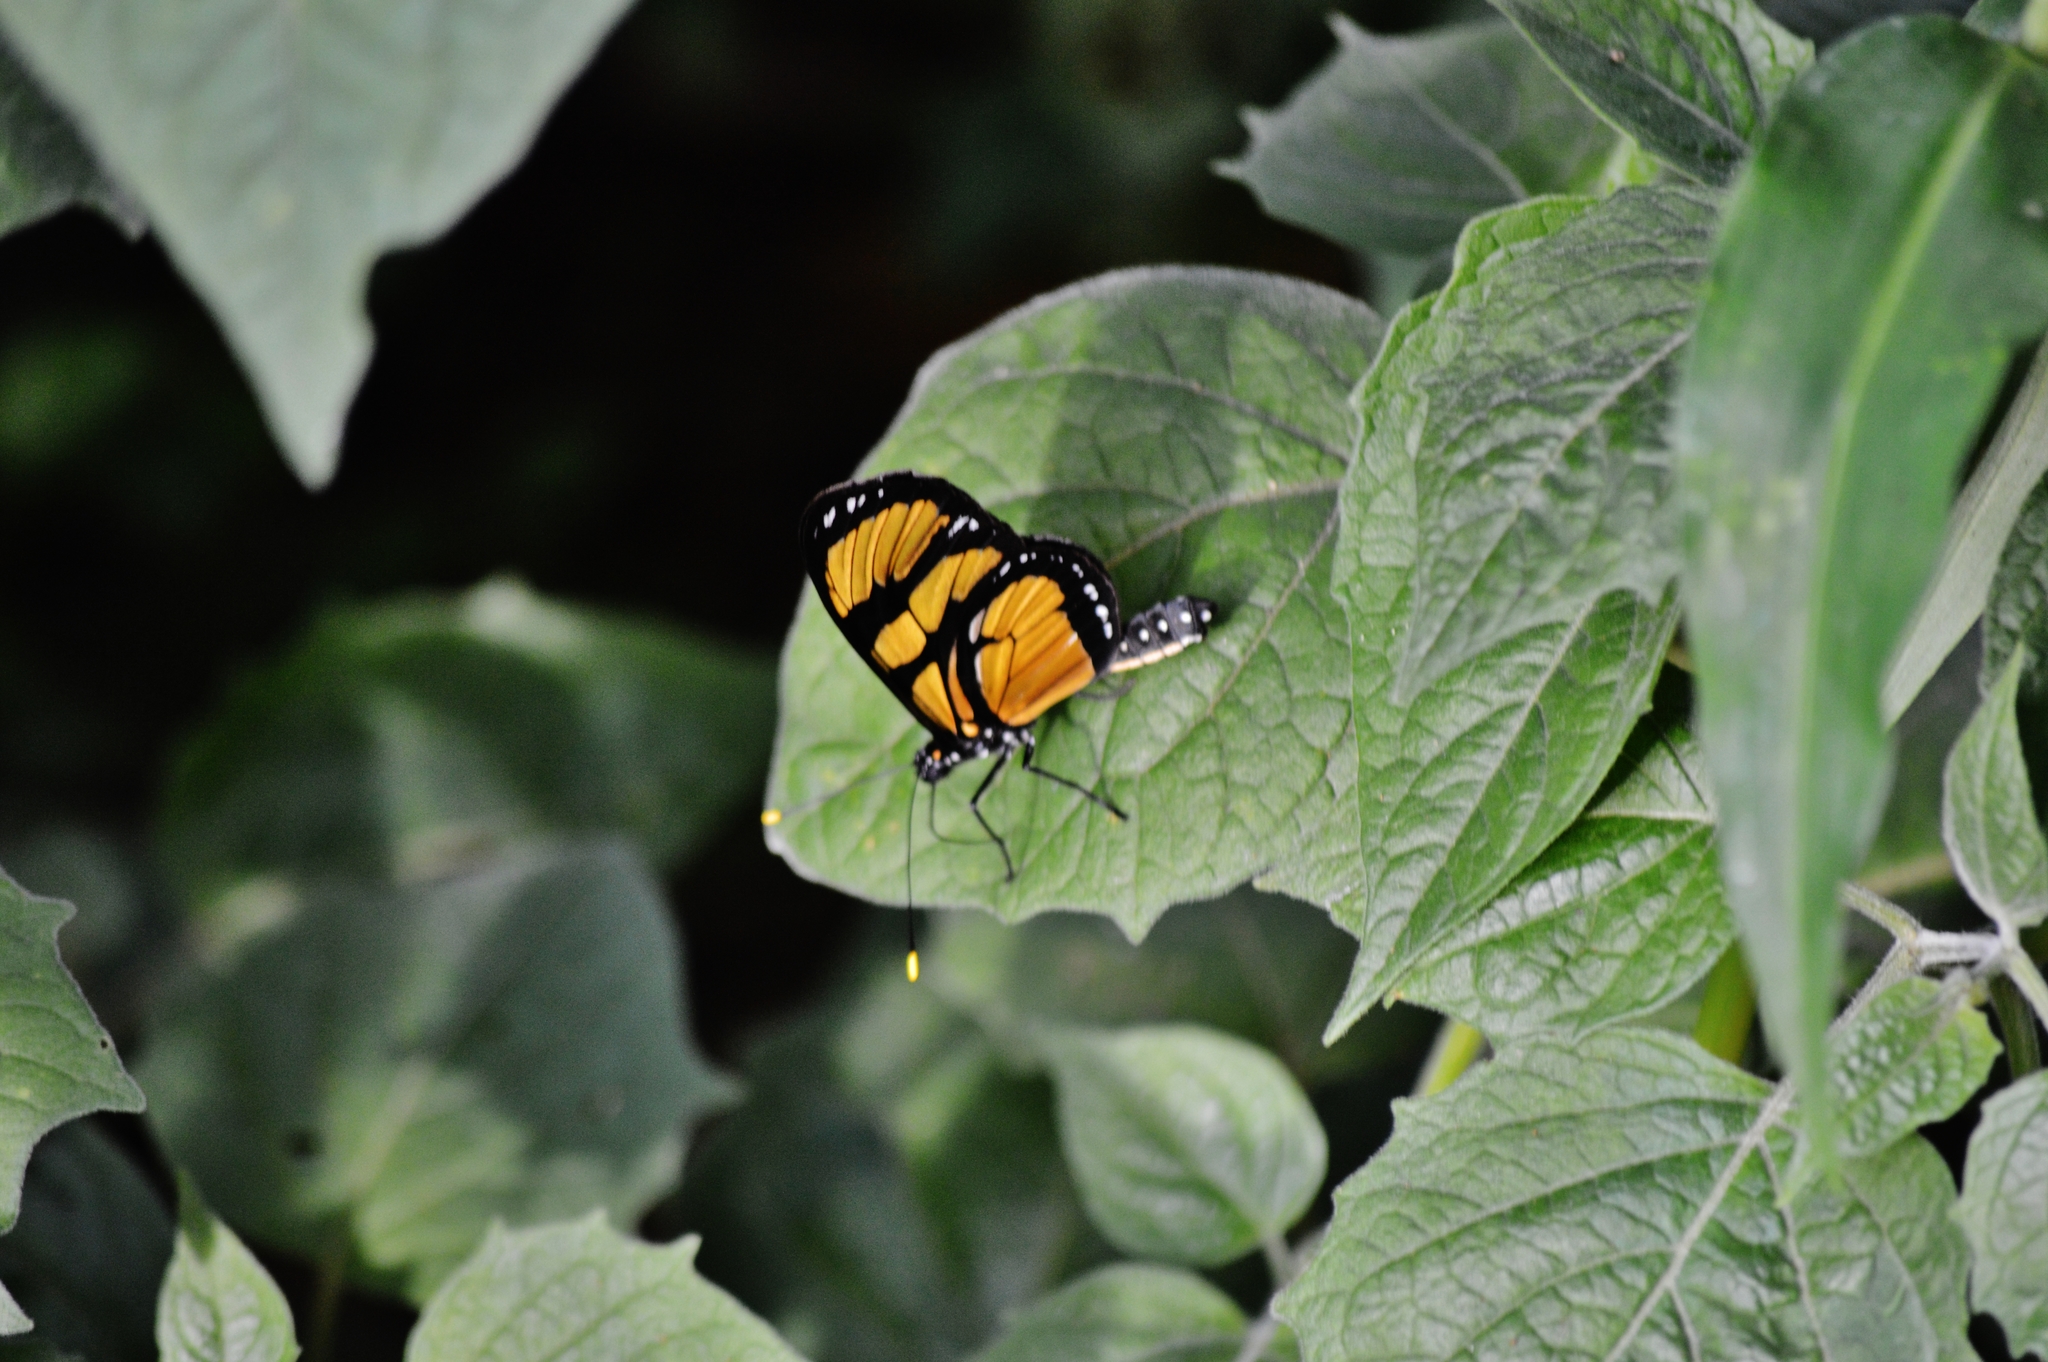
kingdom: Animalia
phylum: Arthropoda
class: Insecta
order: Lepidoptera
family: Nymphalidae
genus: Methona
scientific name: Methona themisto
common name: Themisto amberwing
